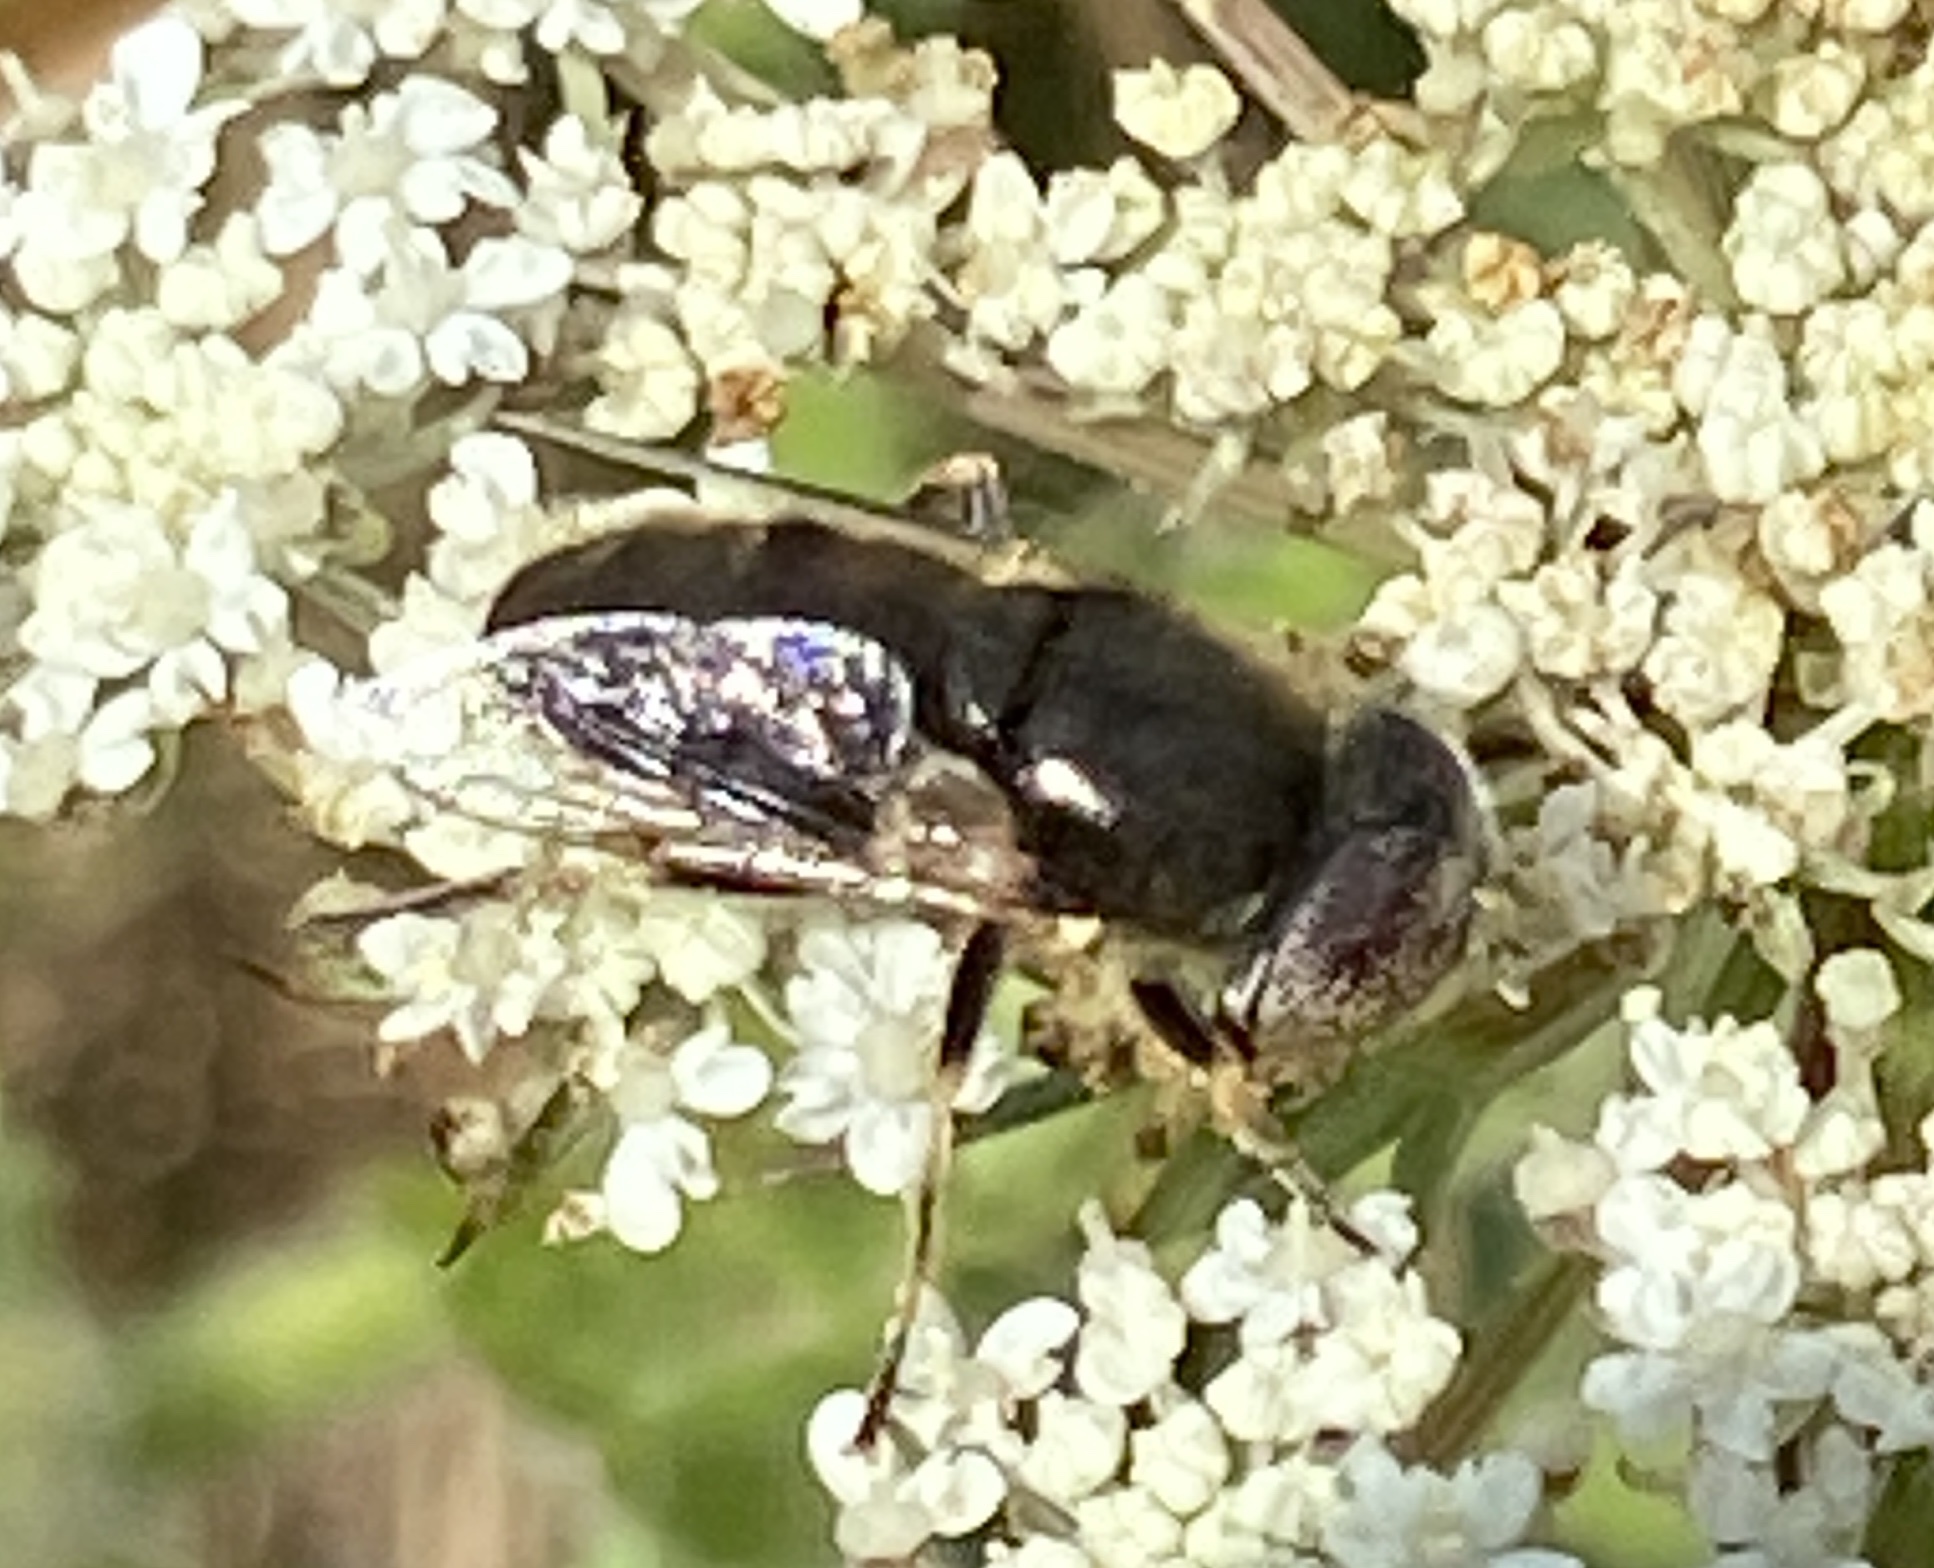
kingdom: Animalia
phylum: Arthropoda
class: Insecta
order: Diptera
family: Syrphidae
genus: Eristalinus
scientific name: Eristalinus aeneus
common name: Syrphid fly
